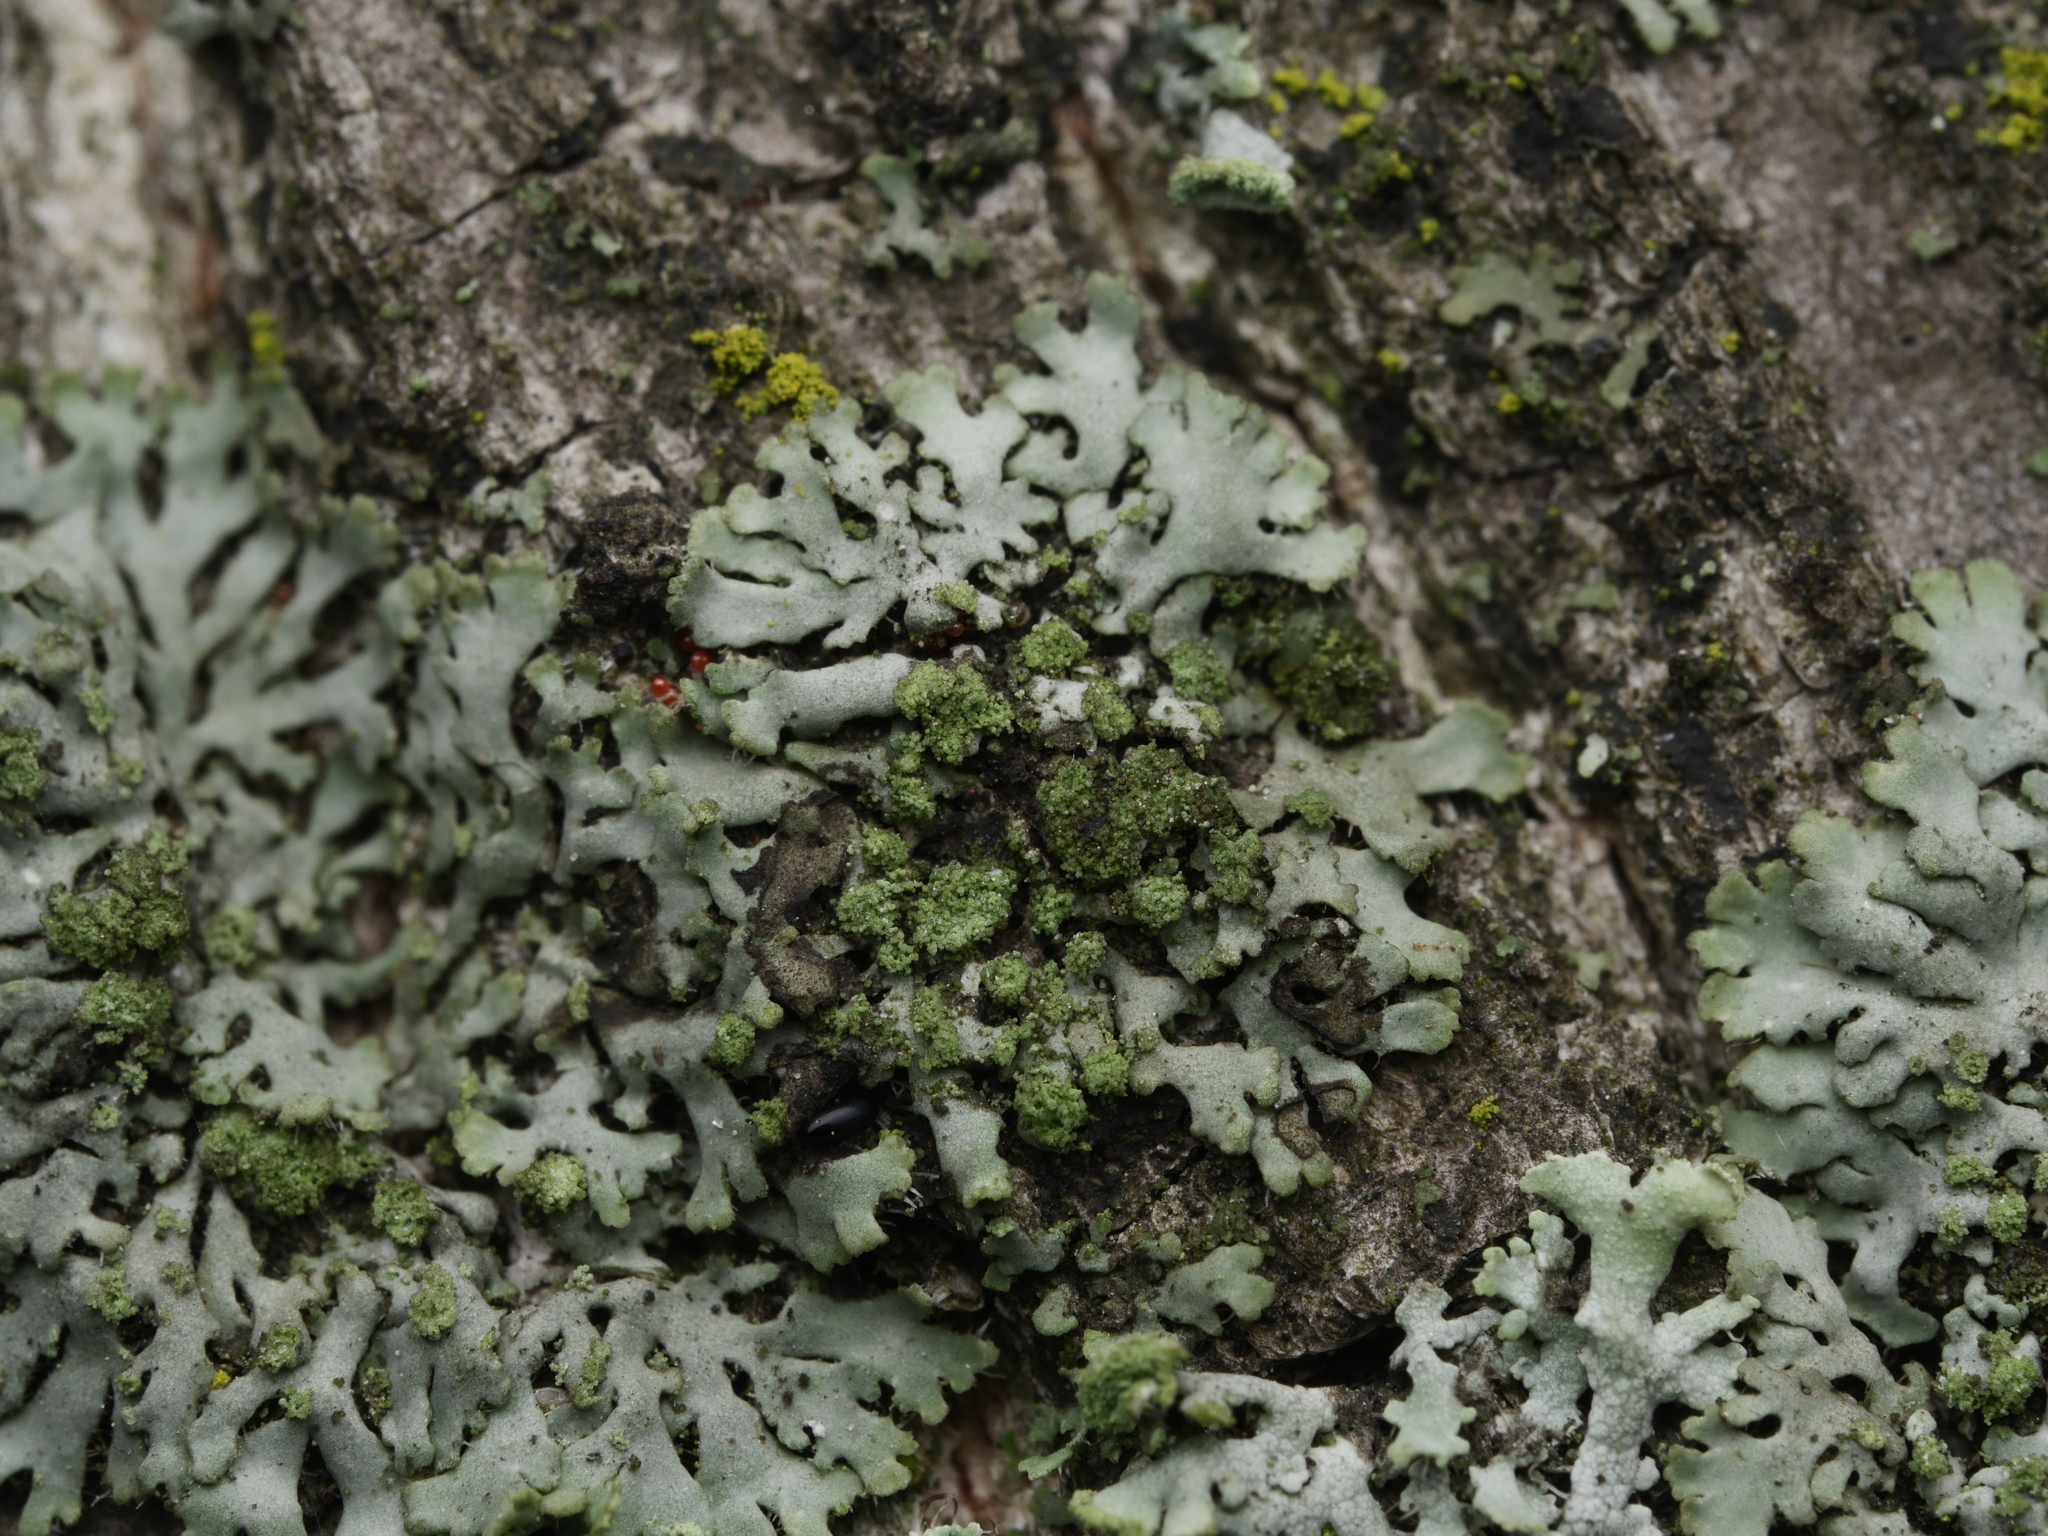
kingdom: Fungi
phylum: Ascomycota
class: Lecanoromycetes
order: Caliciales
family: Physciaceae
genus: Phaeophyscia
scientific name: Phaeophyscia orbicularis
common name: Mealy shadow lichen
